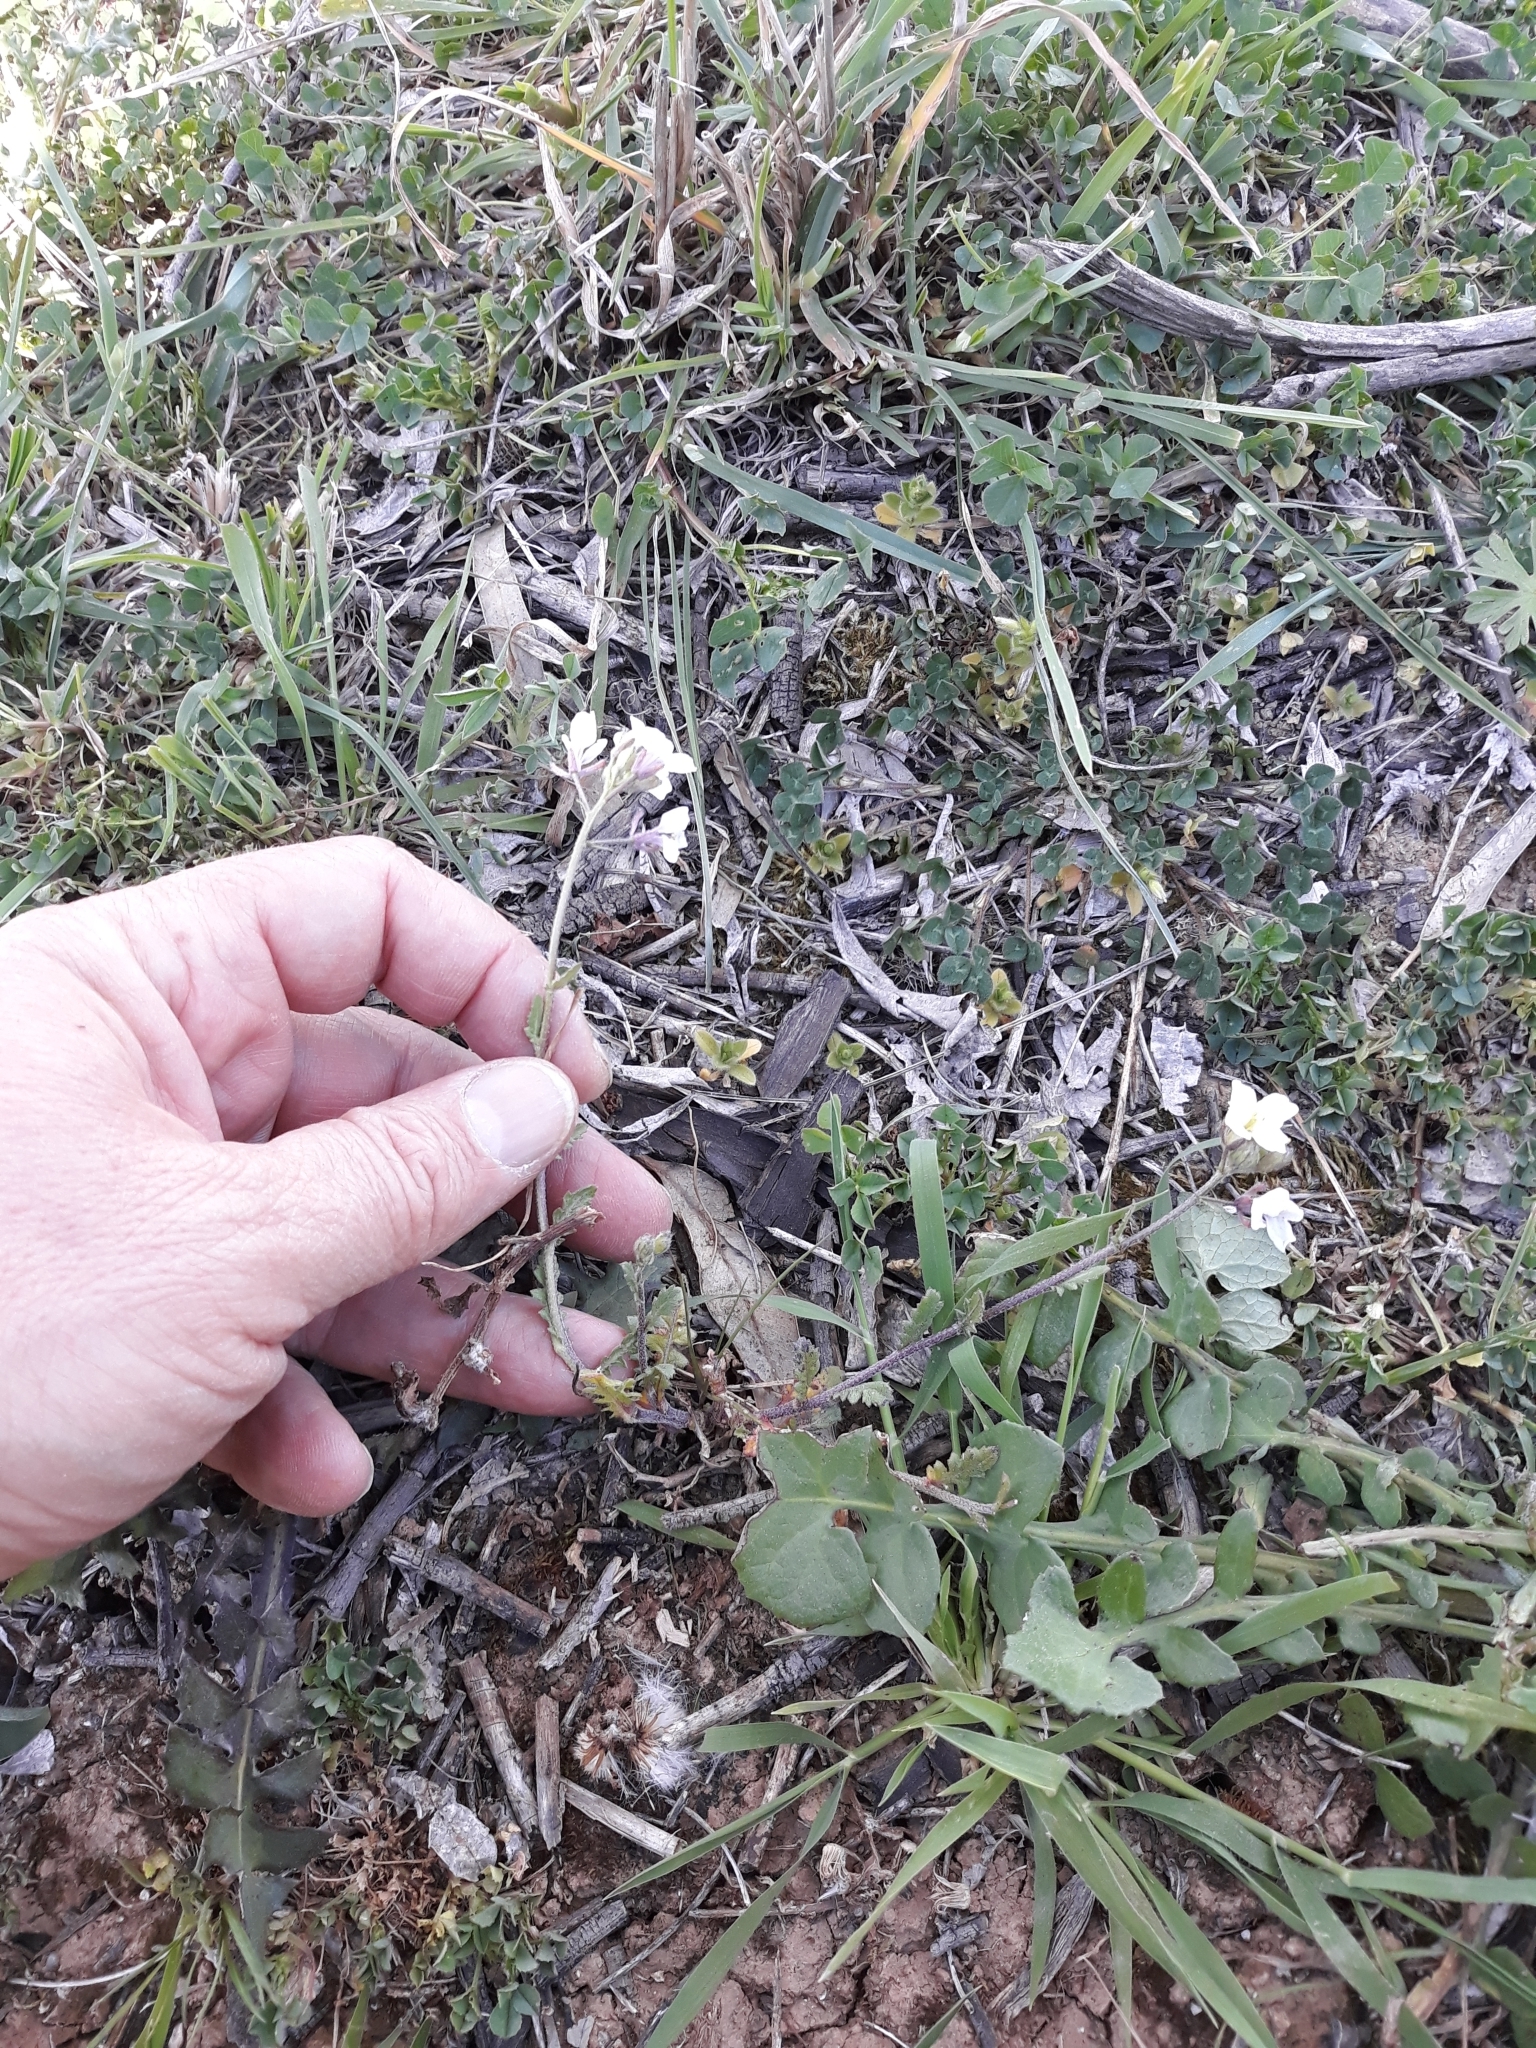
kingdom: Plantae
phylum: Tracheophyta
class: Magnoliopsida
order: Brassicales
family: Brassicaceae
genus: Diplotaxis
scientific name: Diplotaxis erucoides
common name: White rocket
